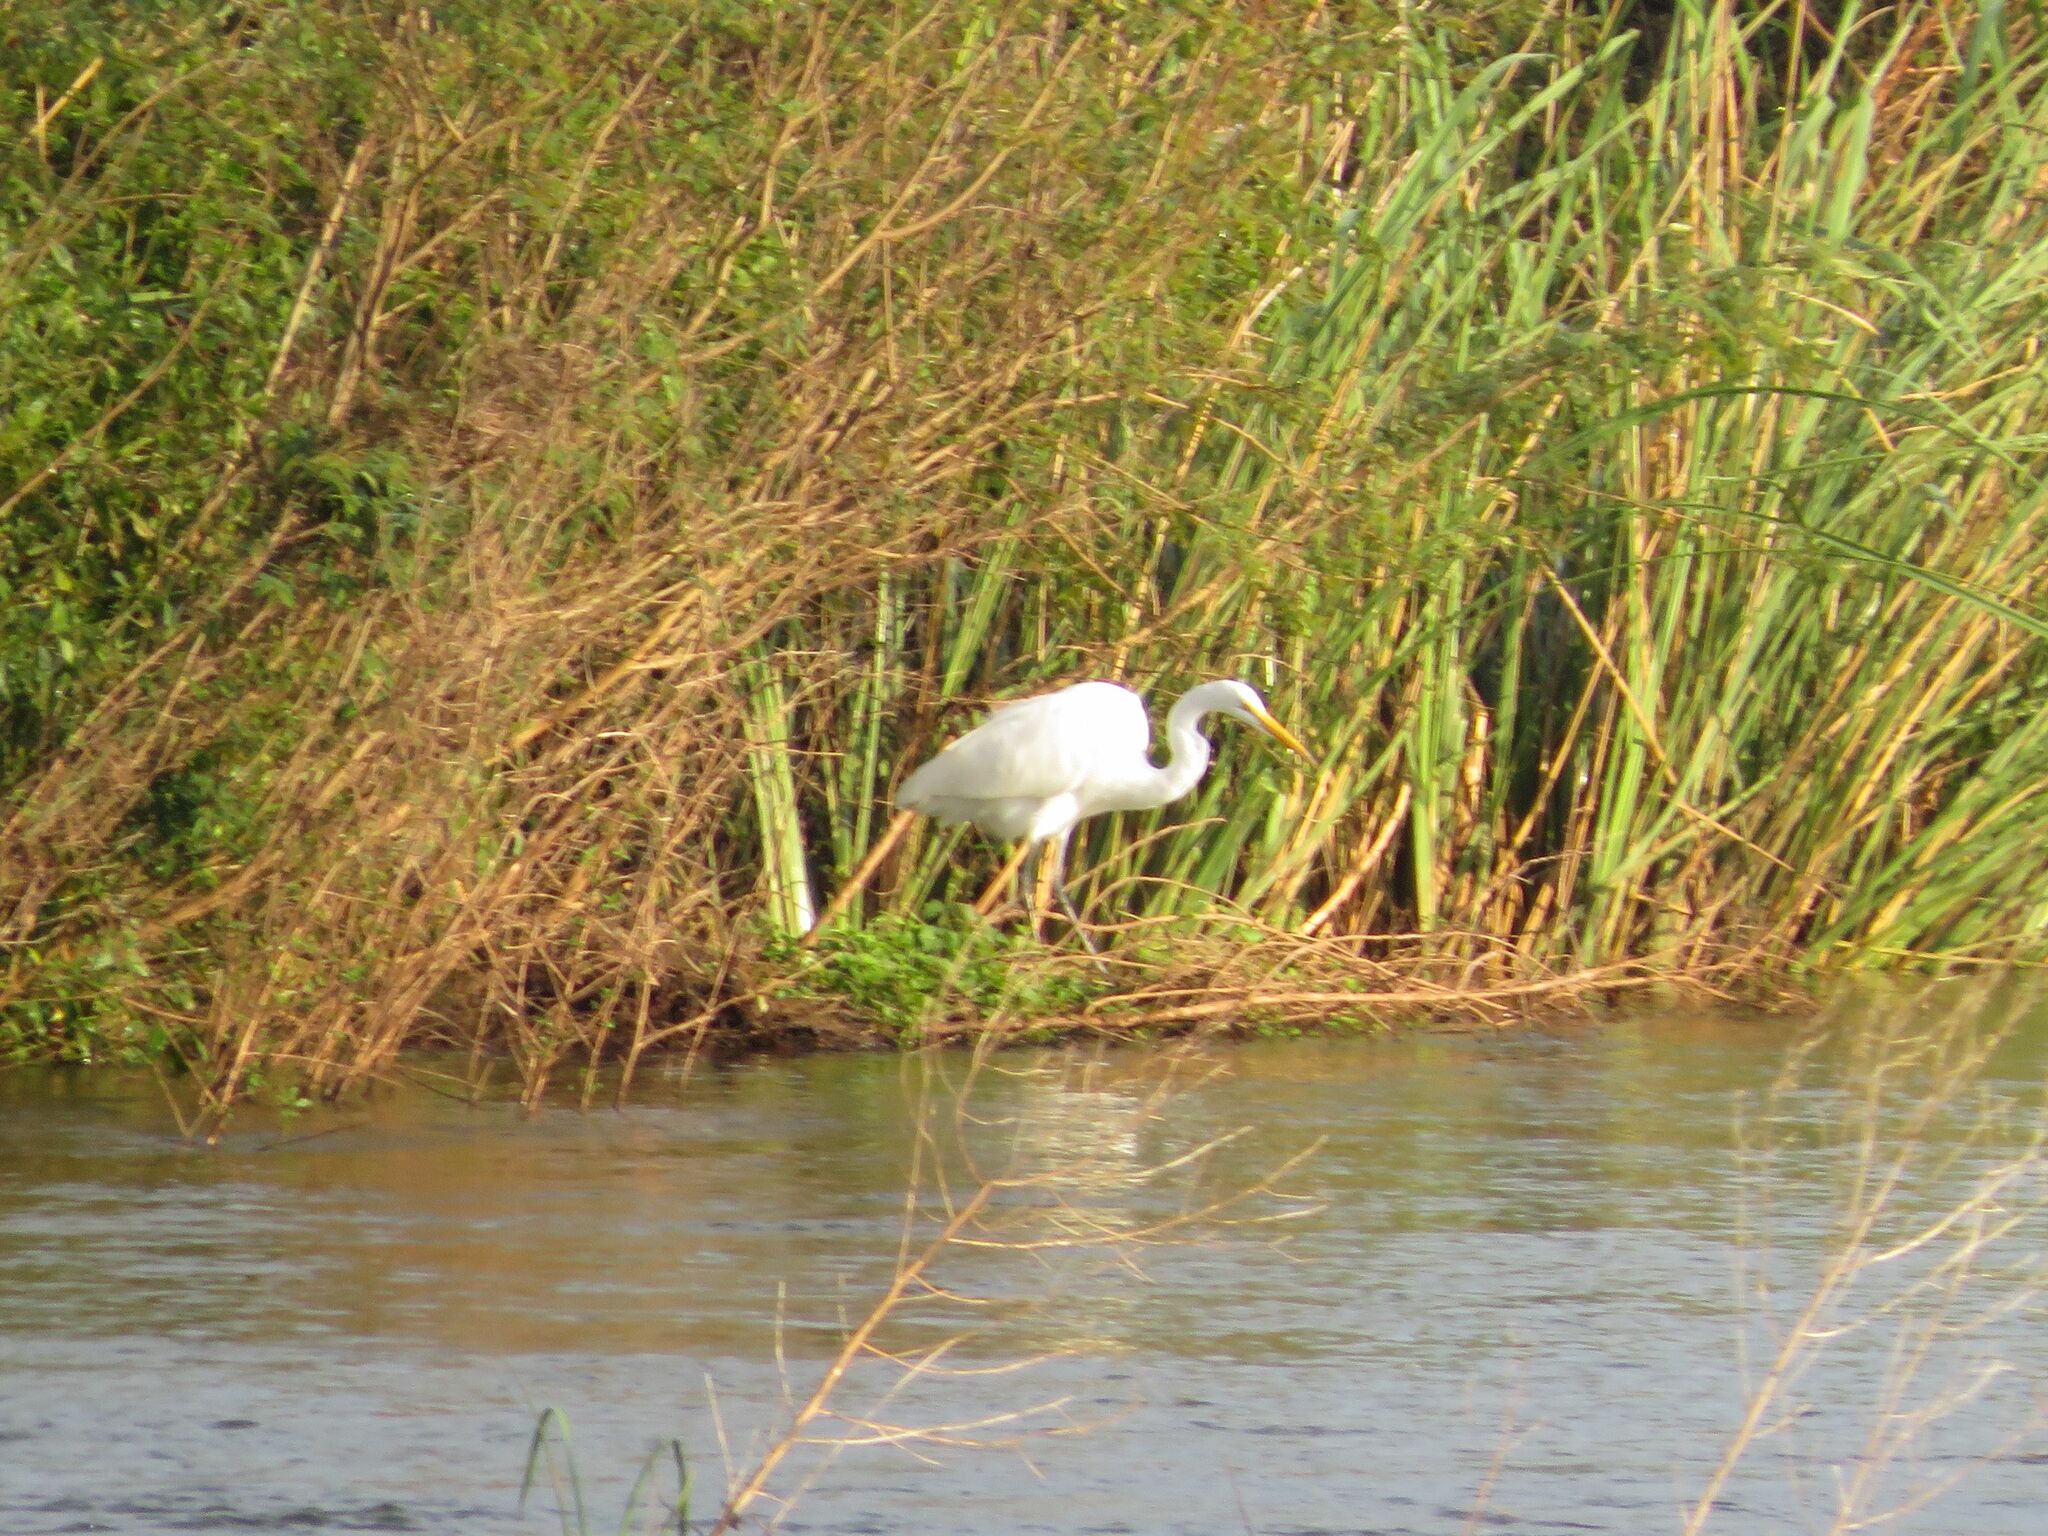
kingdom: Animalia
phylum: Chordata
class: Aves
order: Pelecaniformes
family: Ardeidae
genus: Ardea
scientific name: Ardea alba
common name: Great egret
